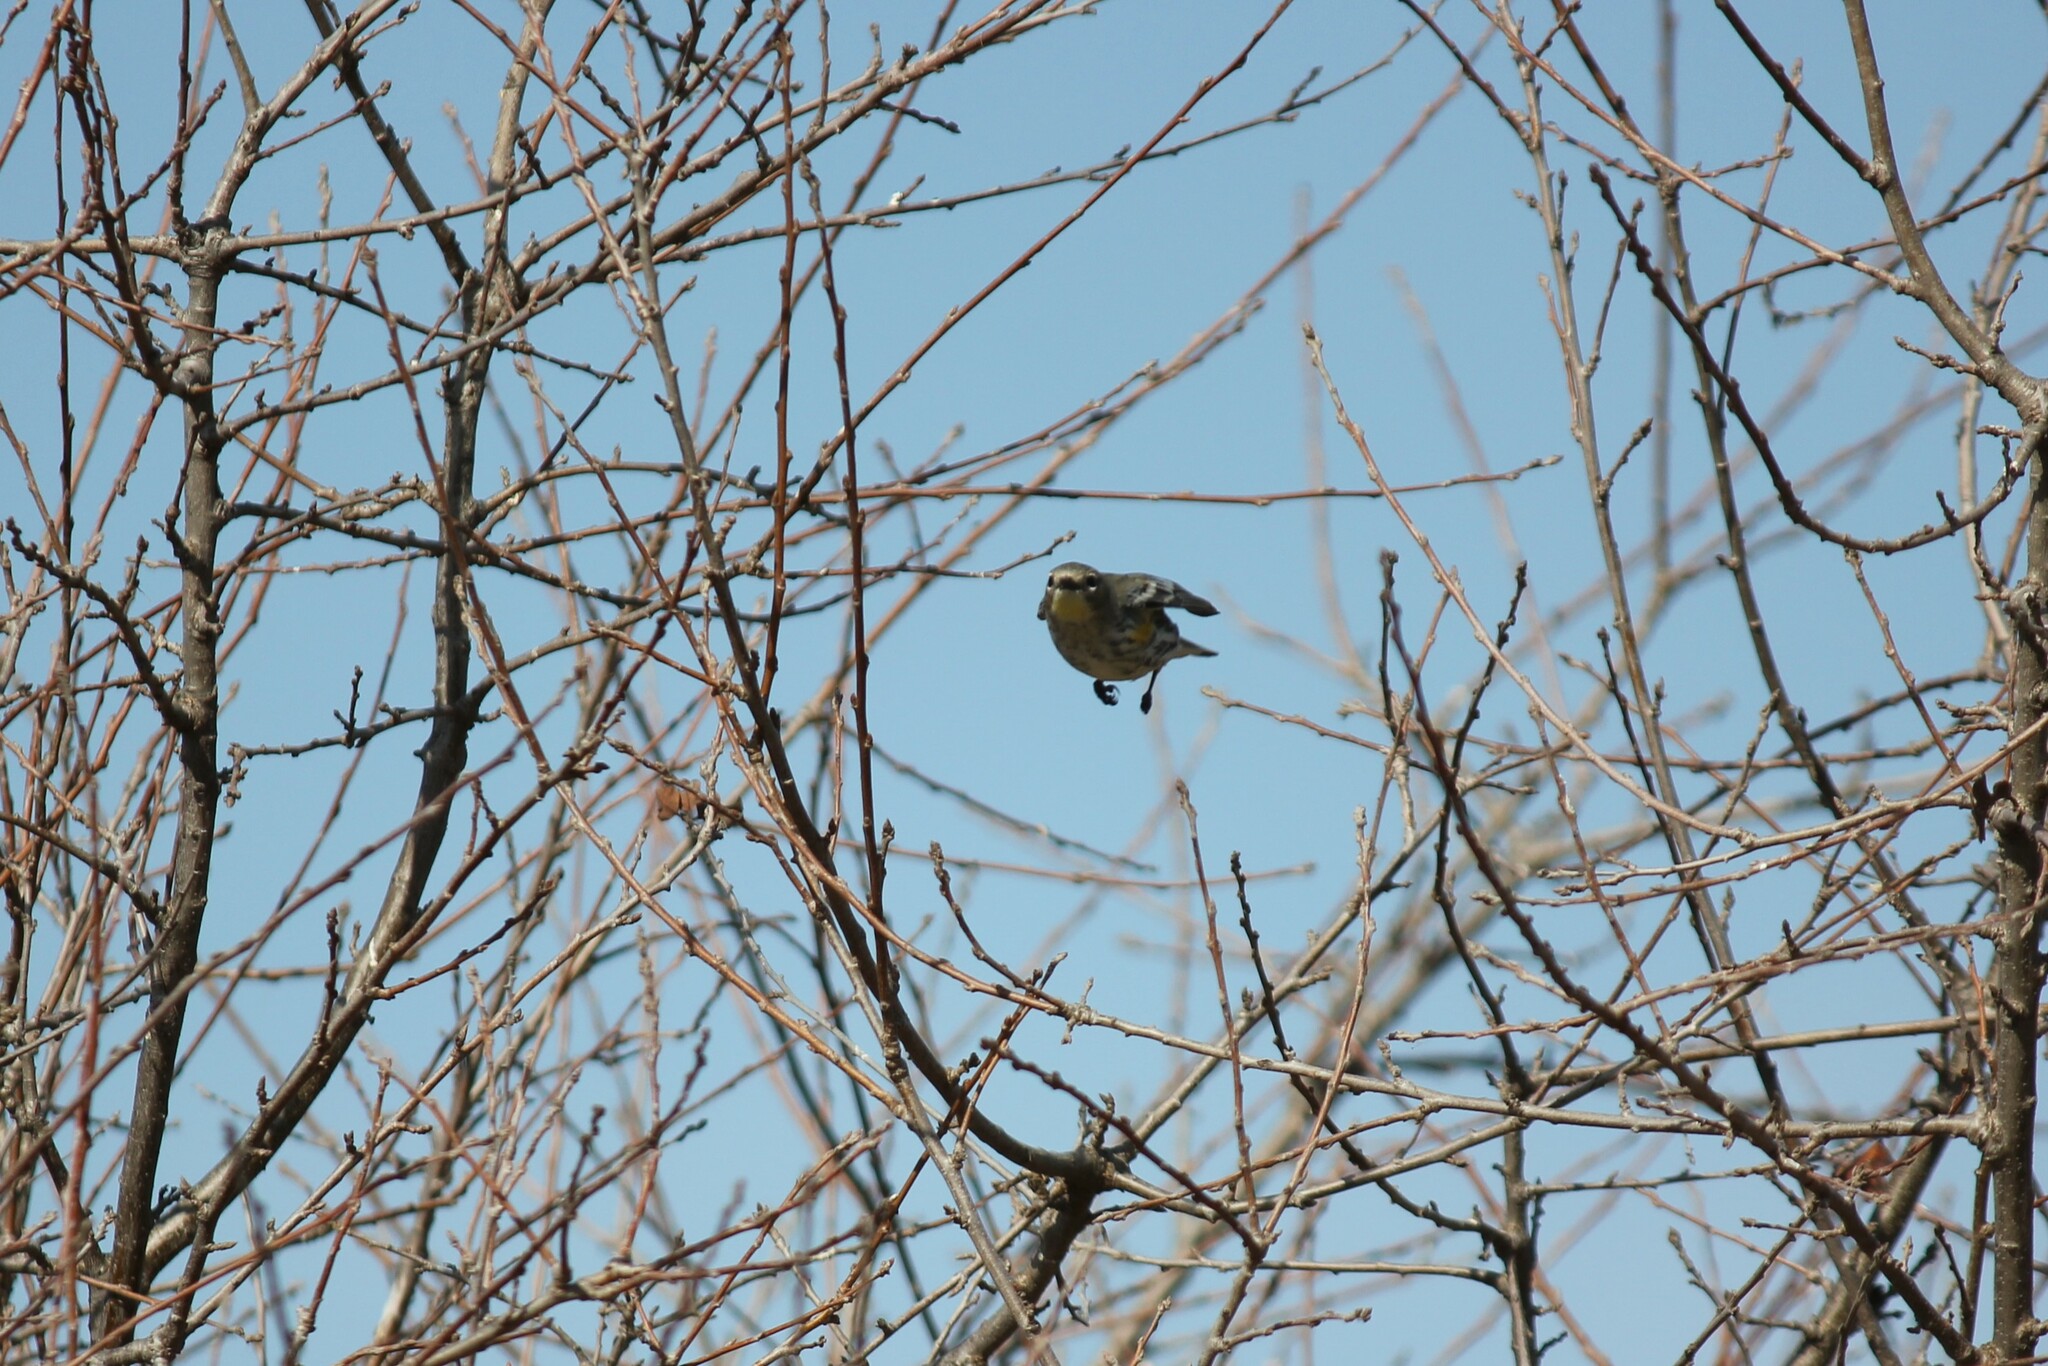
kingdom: Animalia
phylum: Chordata
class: Aves
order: Passeriformes
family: Parulidae
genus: Setophaga
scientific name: Setophaga coronata
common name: Myrtle warbler
